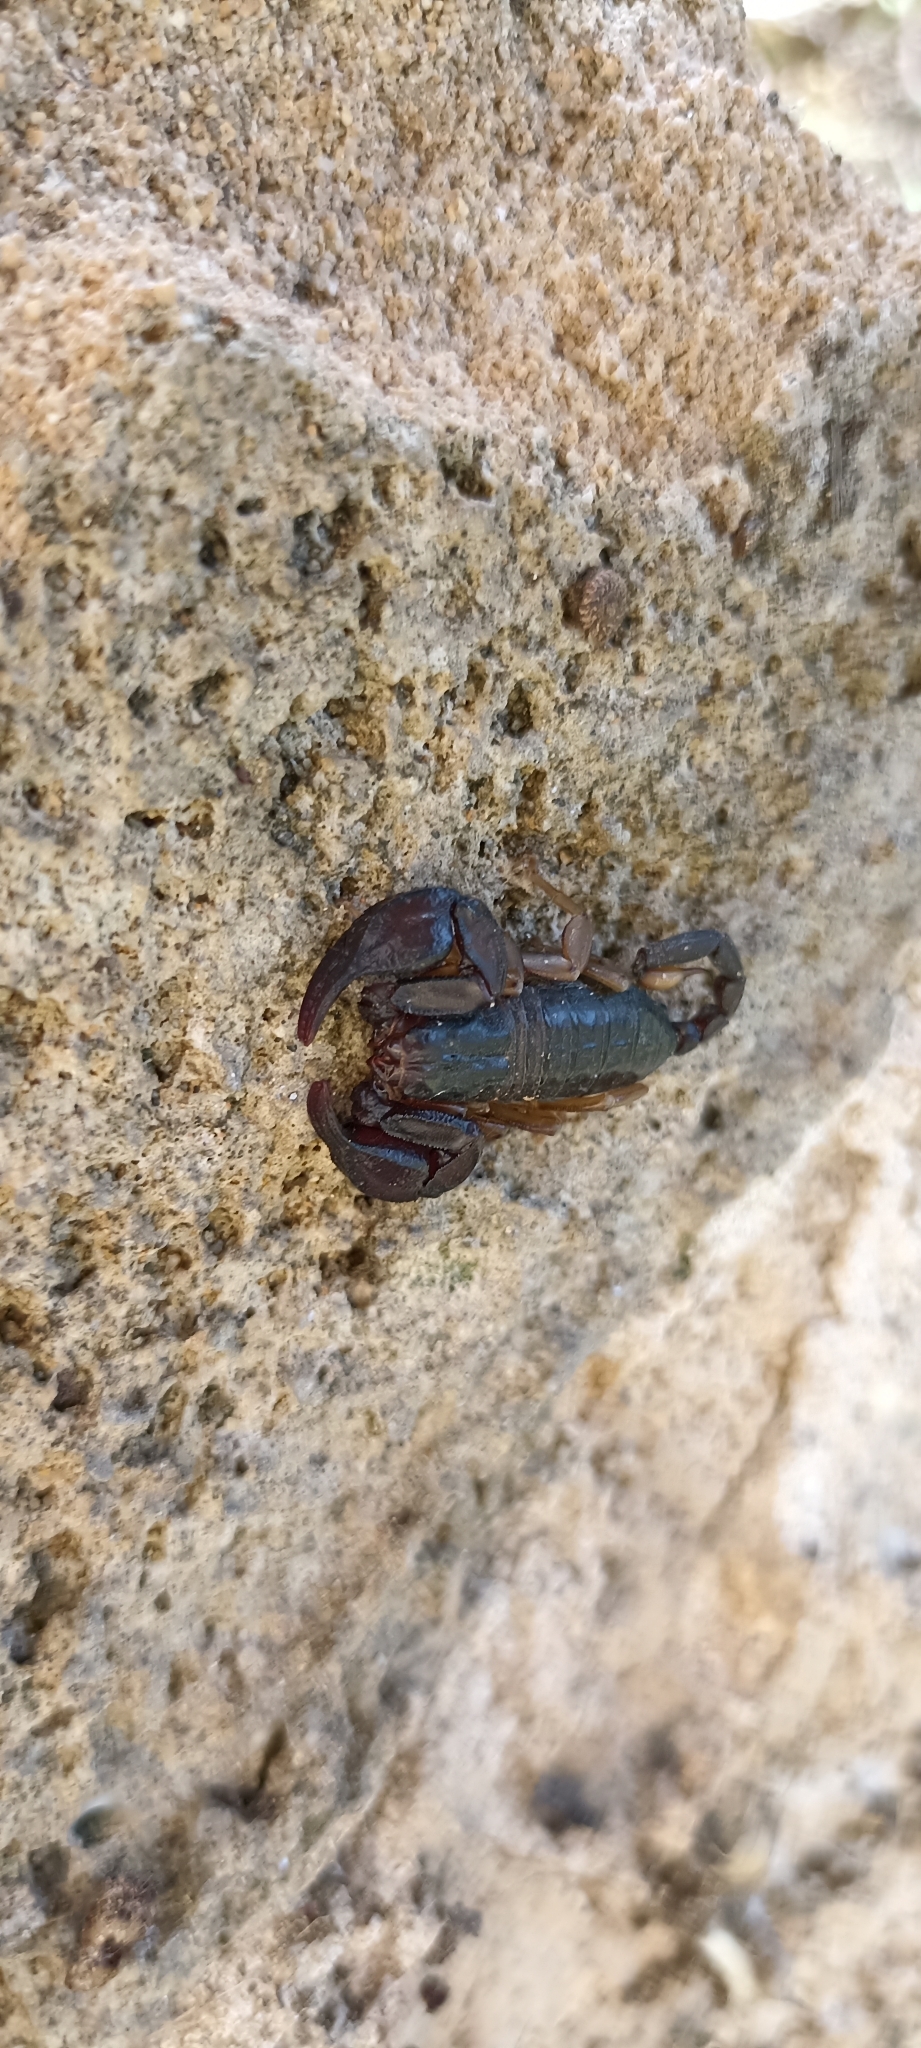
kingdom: Animalia
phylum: Arthropoda
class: Arachnida
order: Scorpiones
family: Euscorpiidae
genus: Euscorpius
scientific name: Euscorpius
